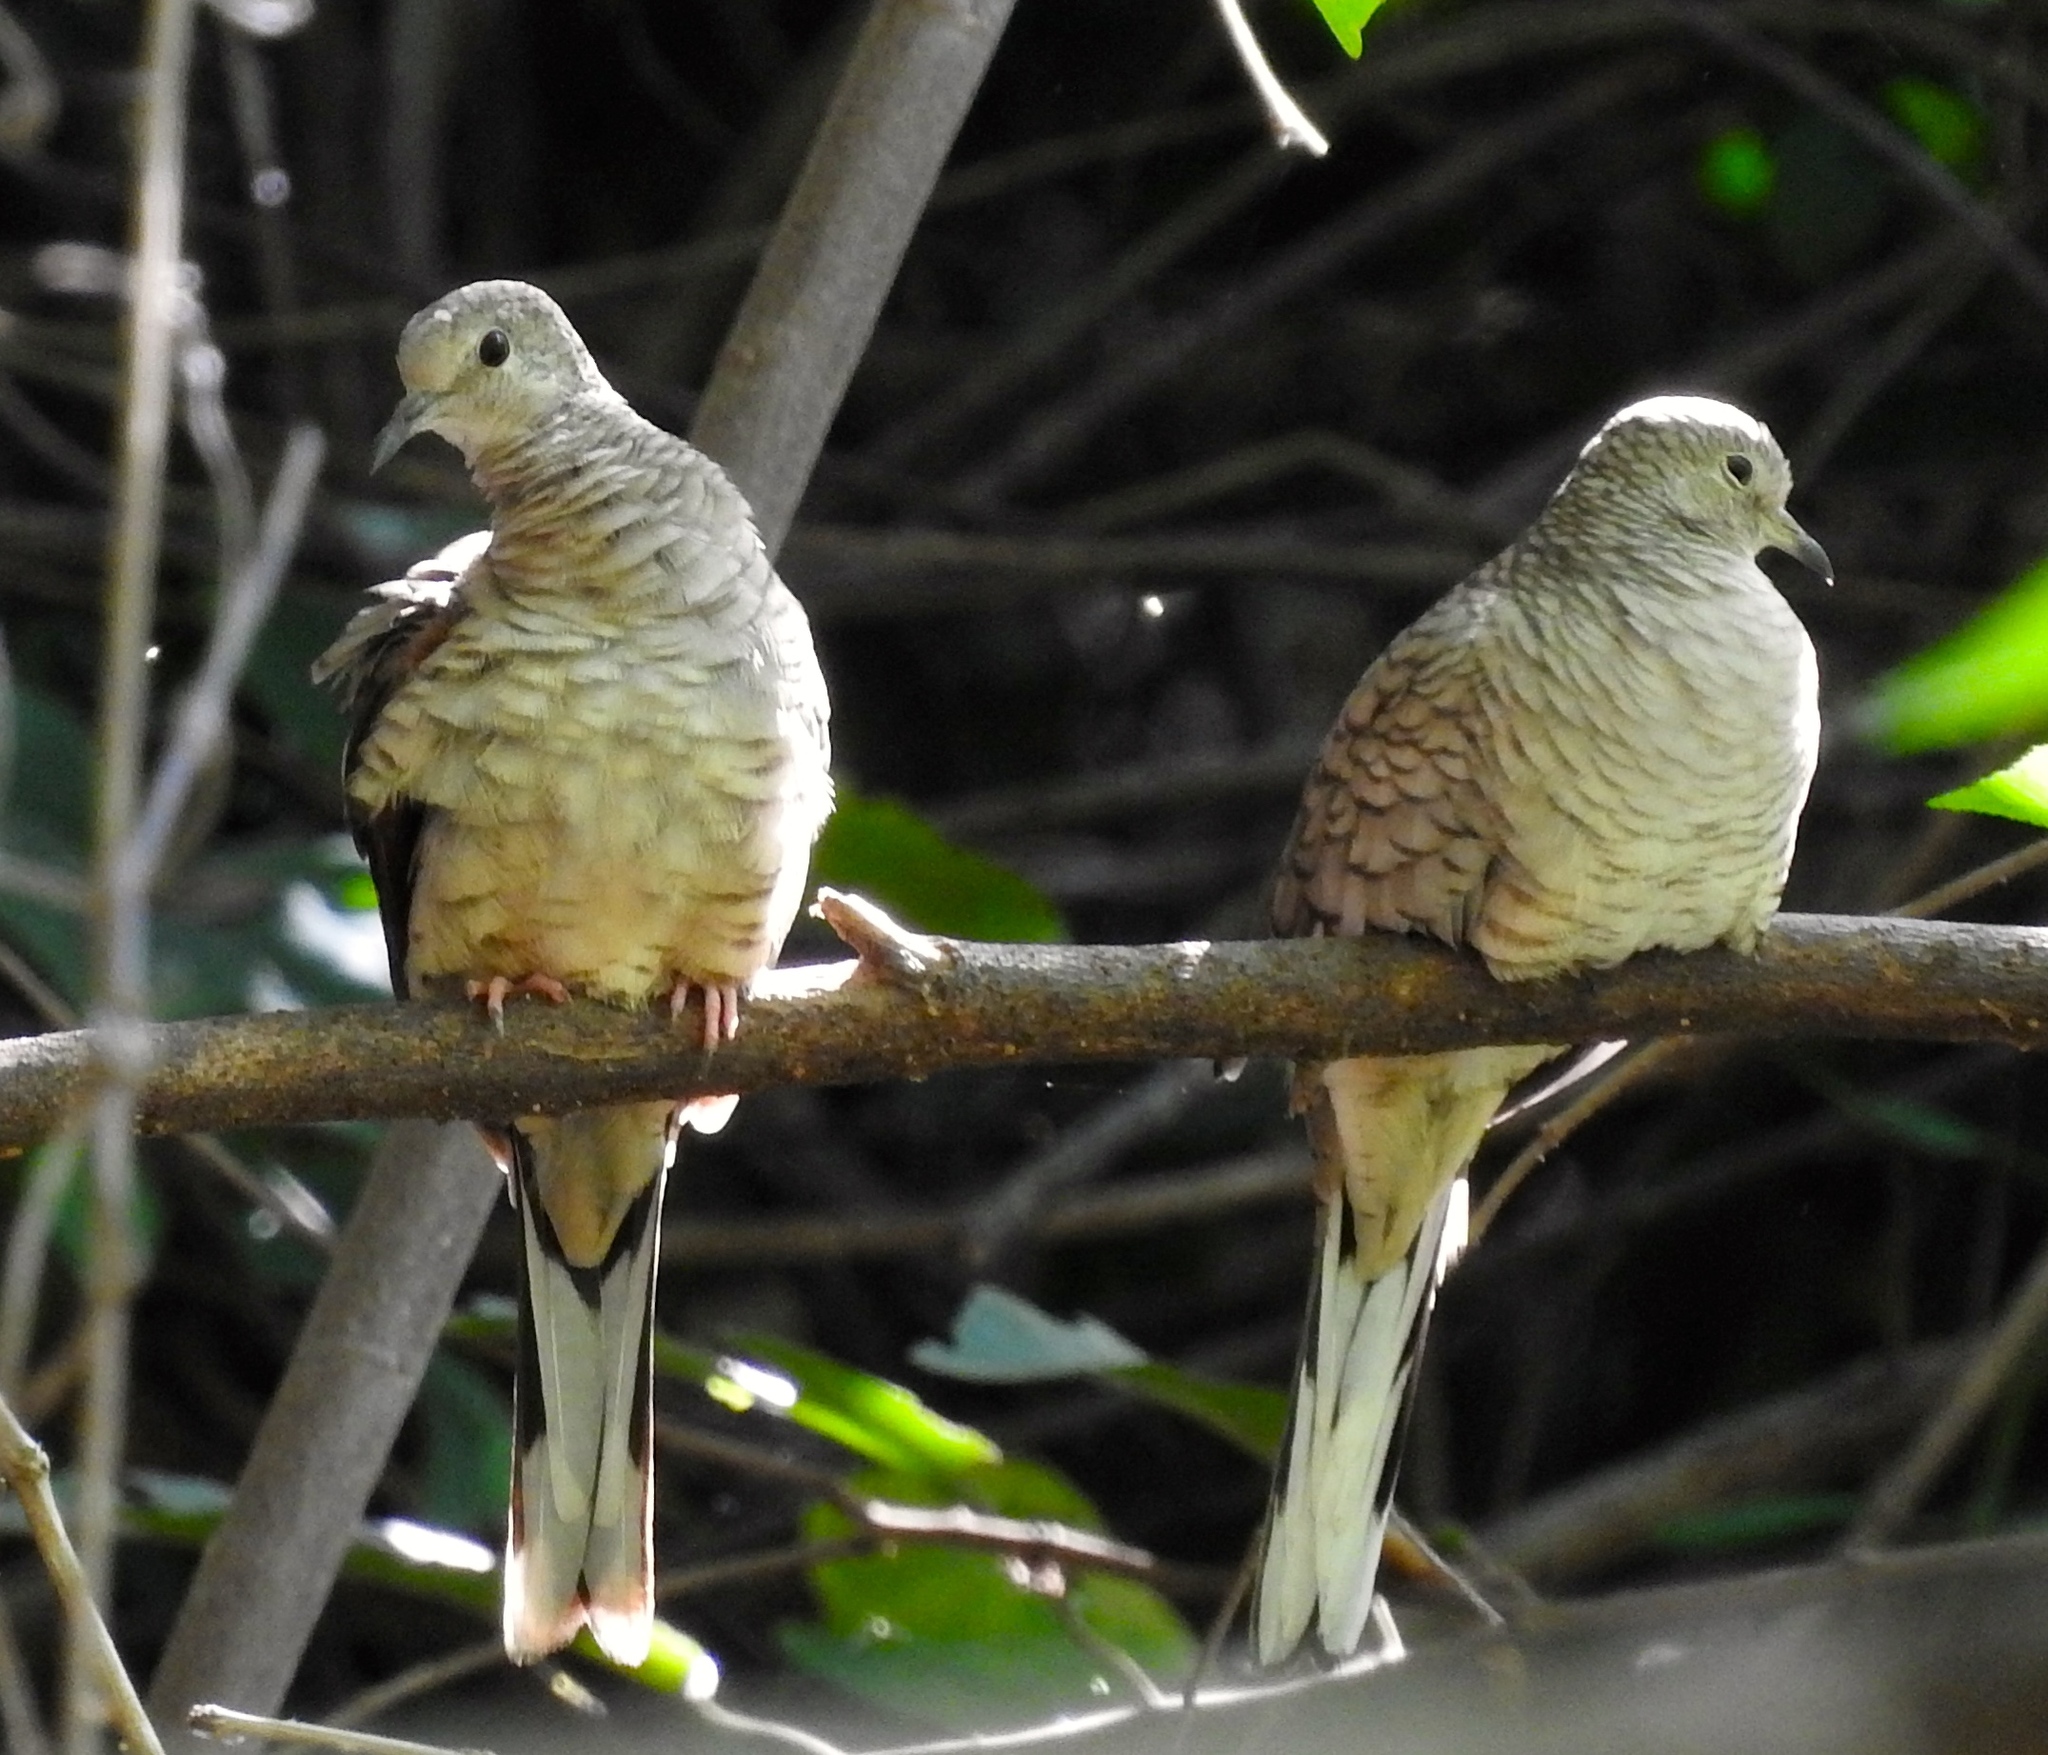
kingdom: Animalia
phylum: Chordata
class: Aves
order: Columbiformes
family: Columbidae
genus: Columbina
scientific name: Columbina inca
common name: Inca dove
